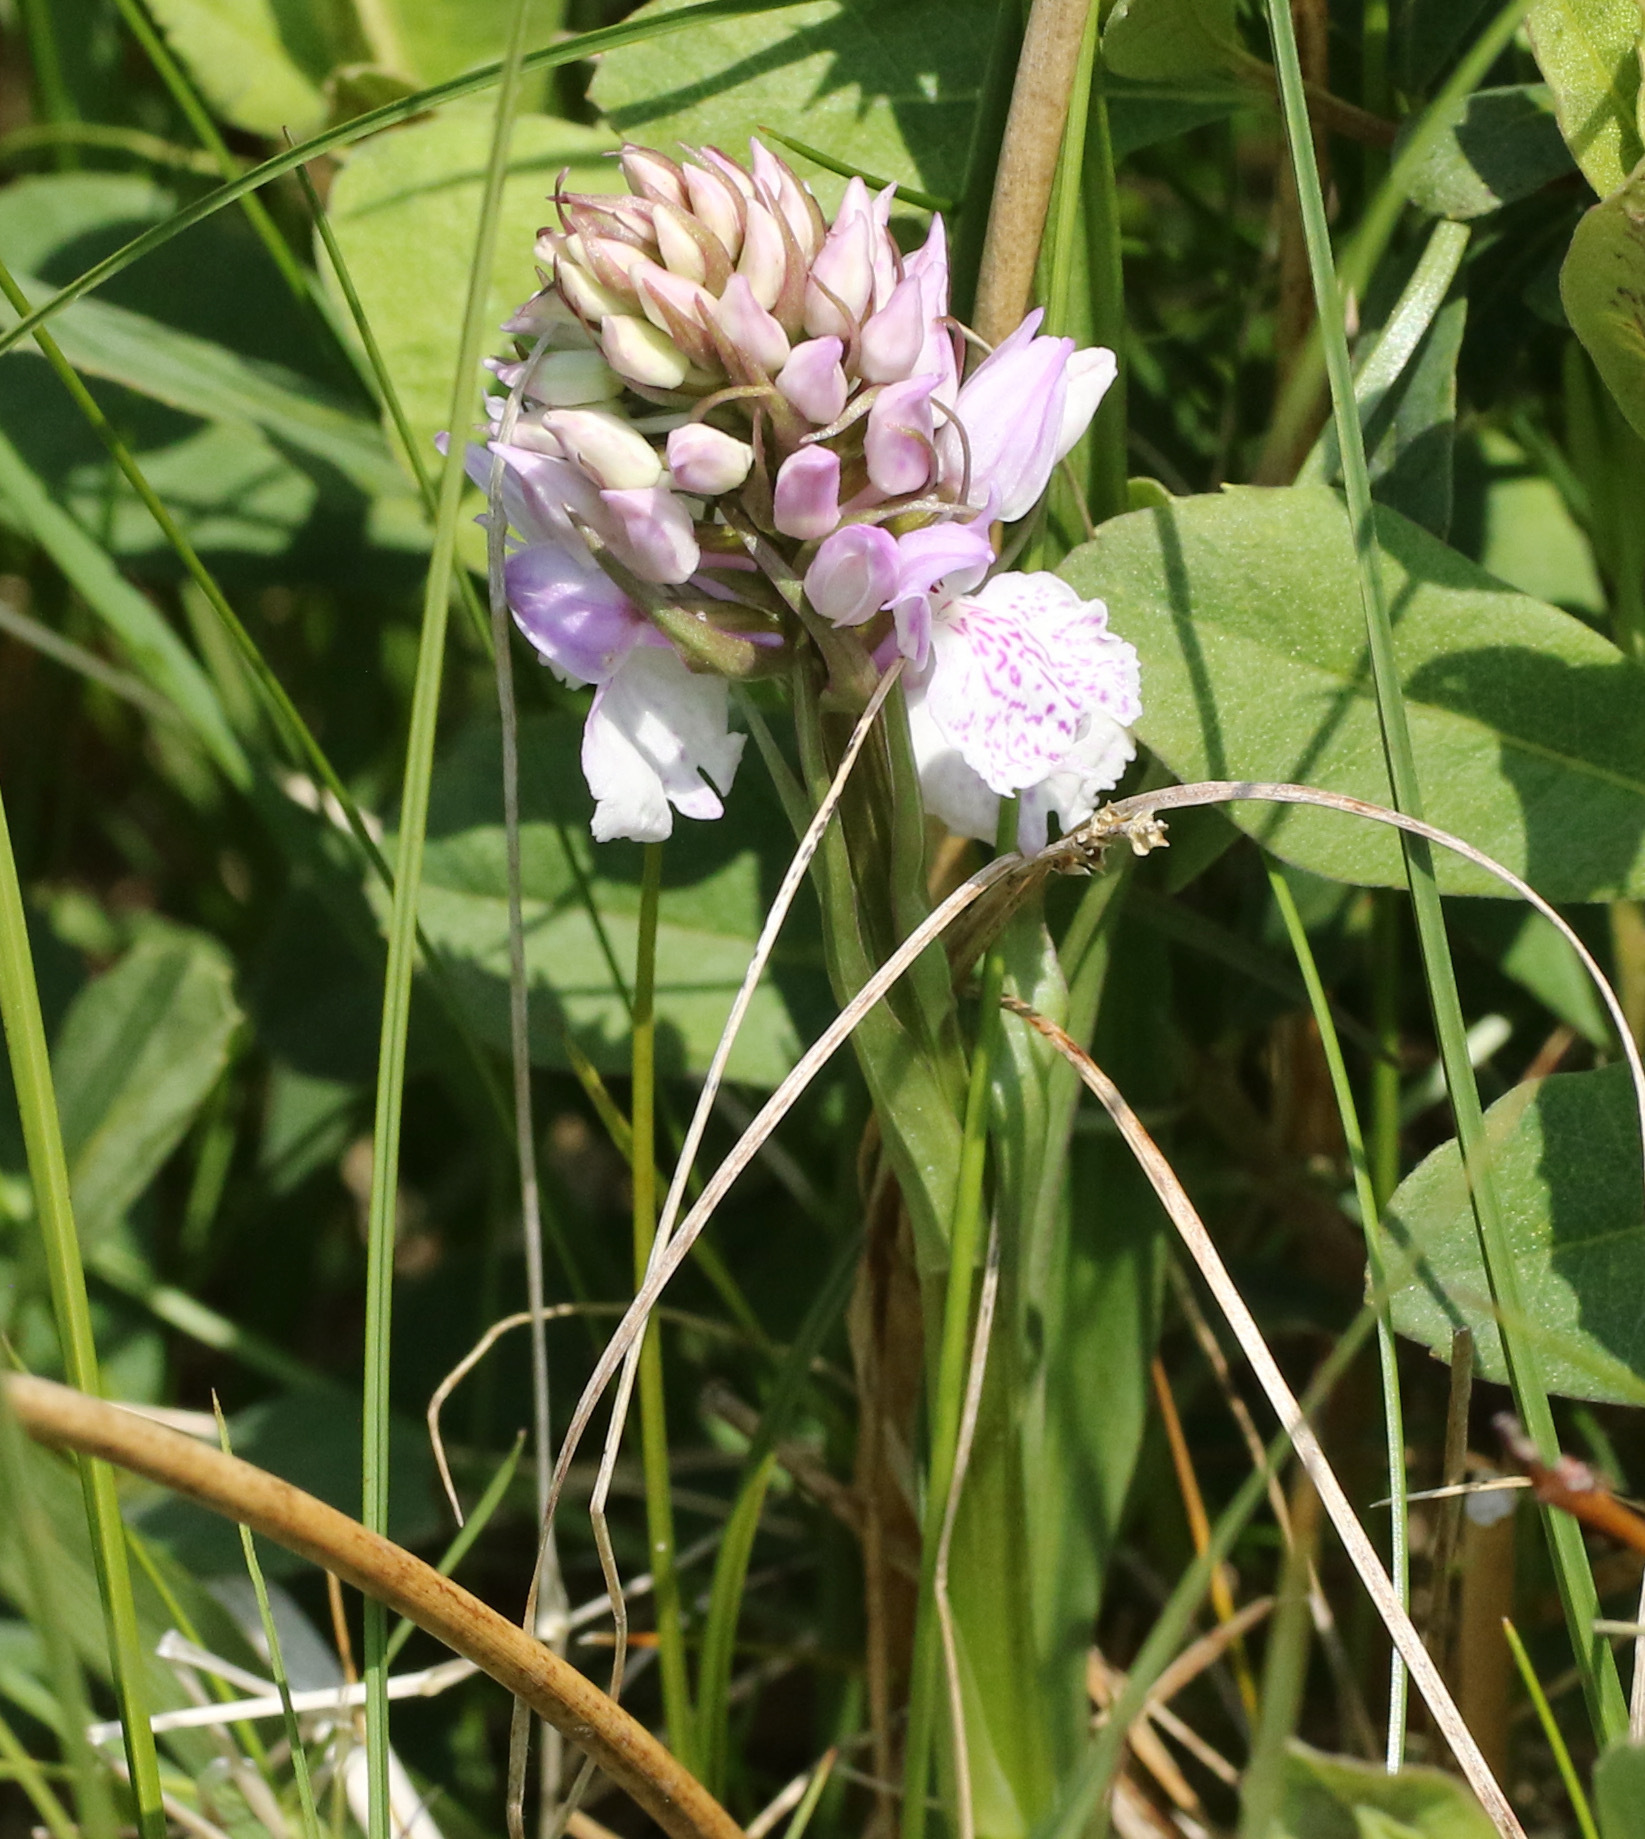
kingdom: Plantae
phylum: Tracheophyta
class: Liliopsida
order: Asparagales
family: Orchidaceae
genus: Dactylorhiza
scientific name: Dactylorhiza maculata
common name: Heath spotted-orchid
